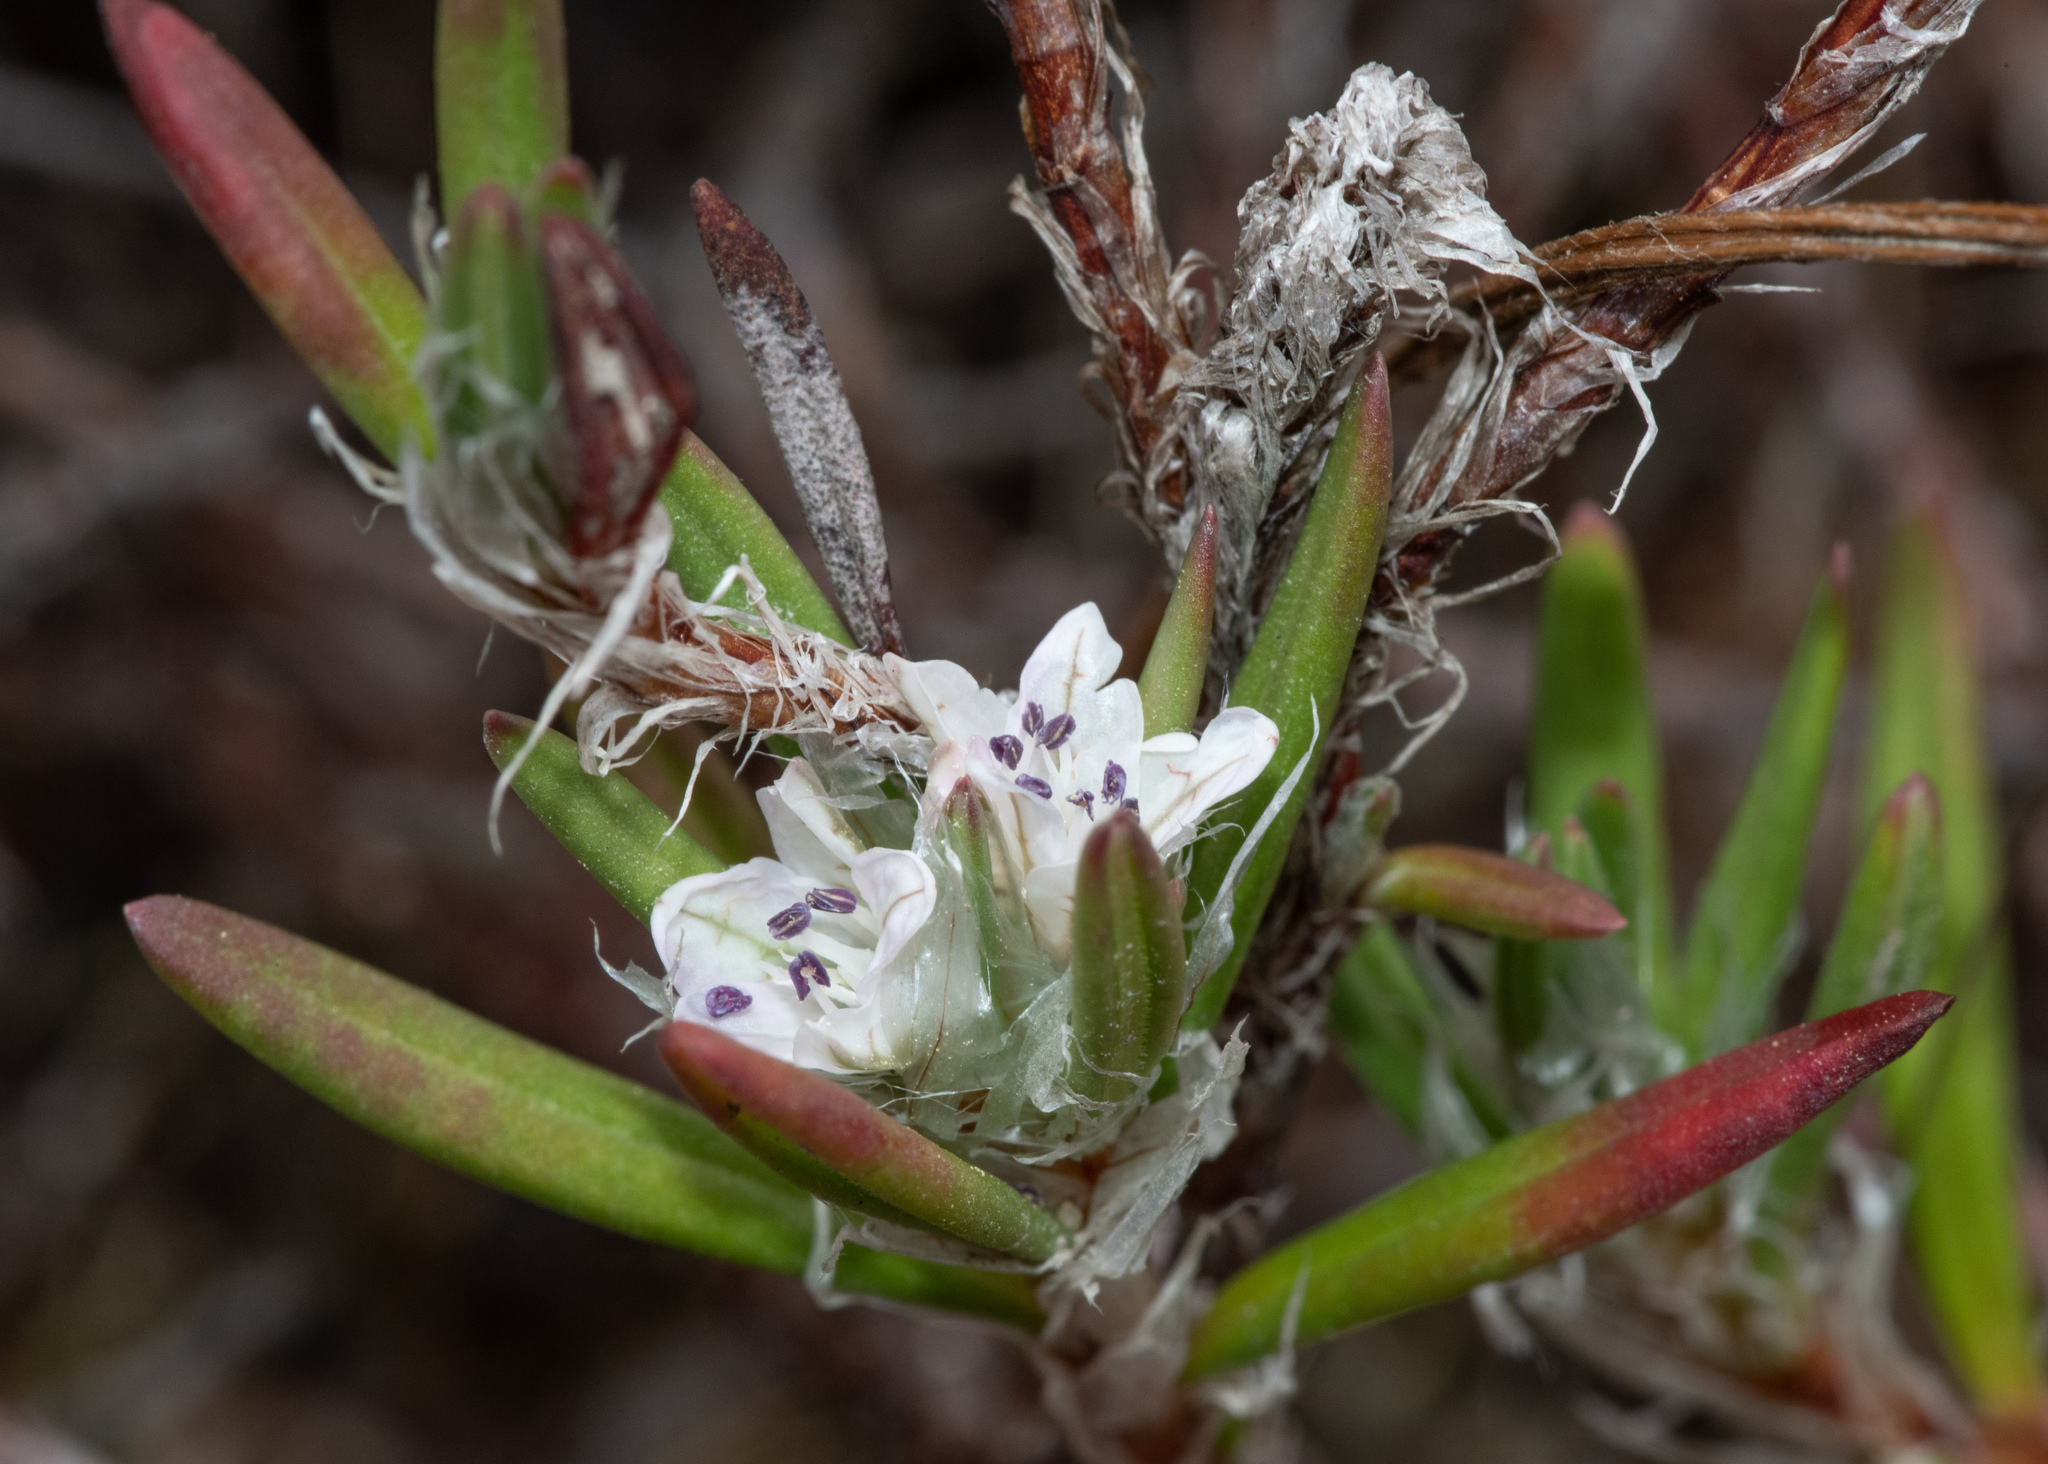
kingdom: Plantae
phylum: Tracheophyta
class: Magnoliopsida
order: Caryophyllales
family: Polygonaceae
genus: Polygonum
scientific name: Polygonum paronychia
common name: Dune knotweed
